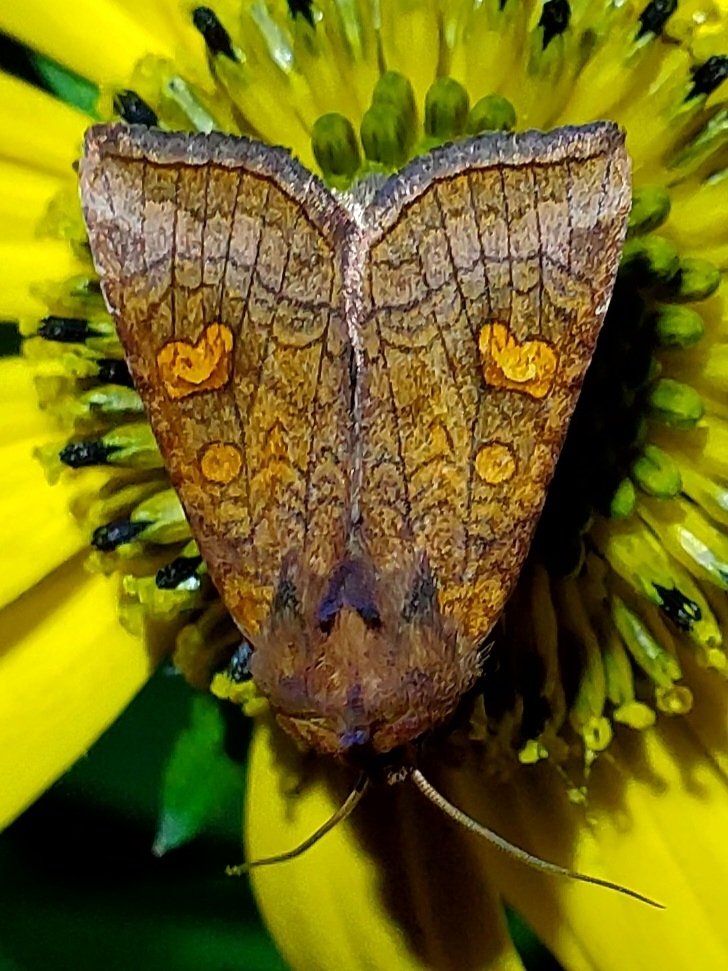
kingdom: Animalia
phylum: Arthropoda
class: Insecta
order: Lepidoptera
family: Noctuidae
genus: Amphipoea
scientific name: Amphipoea americana
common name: American ear moth
